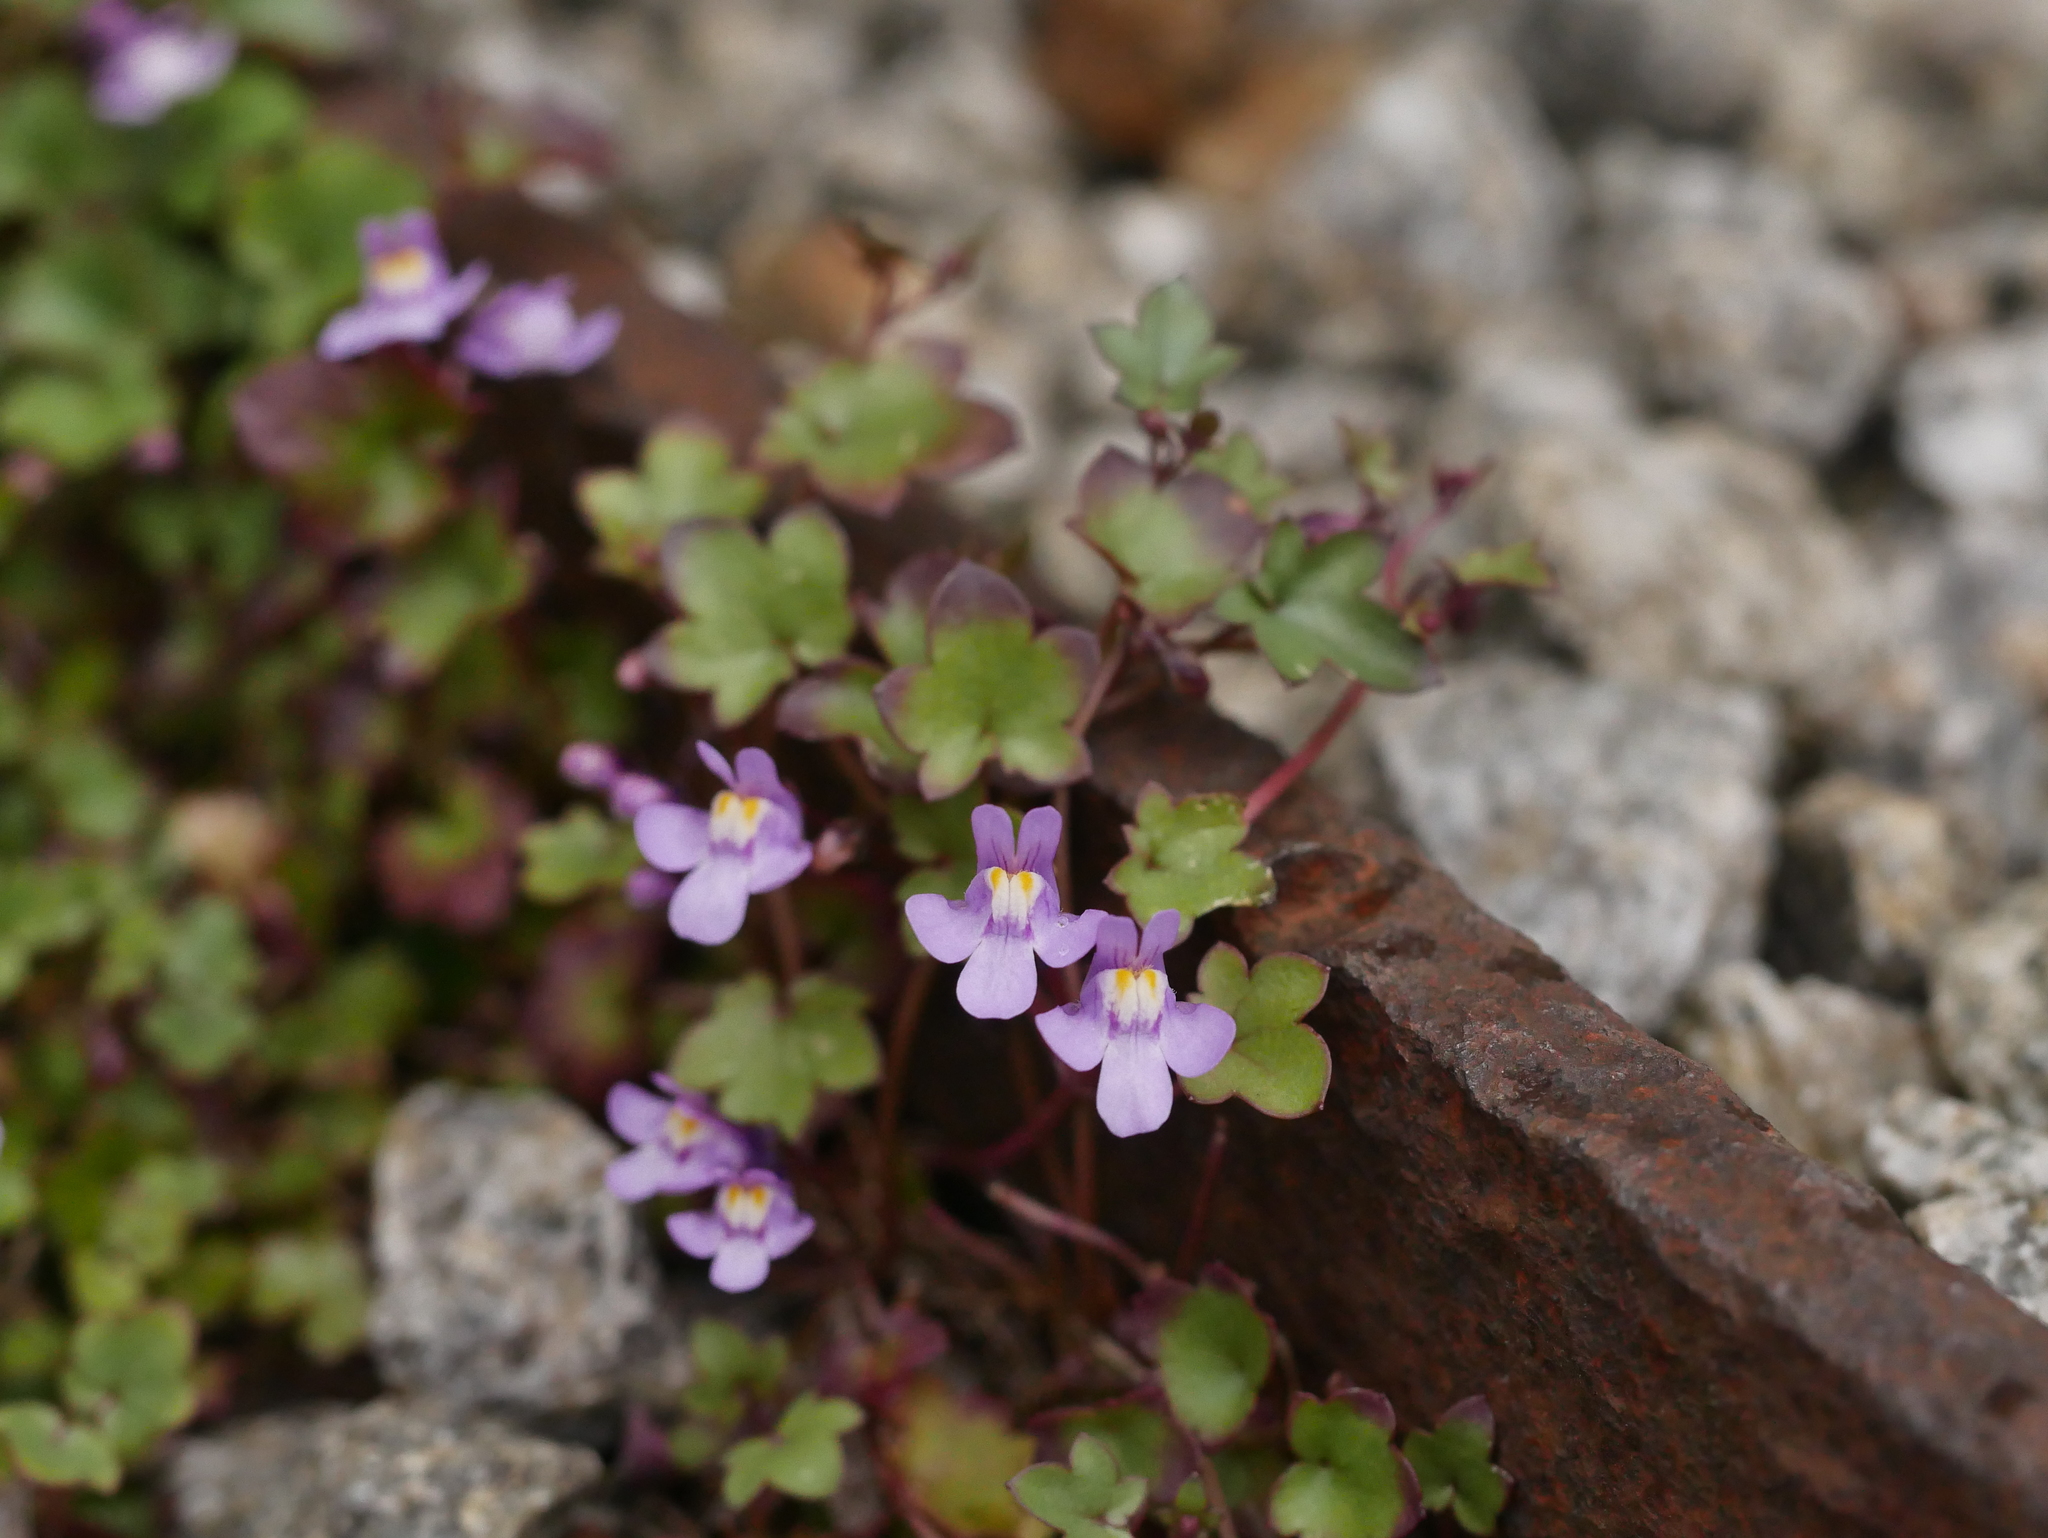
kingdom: Plantae
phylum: Tracheophyta
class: Magnoliopsida
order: Lamiales
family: Plantaginaceae
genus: Cymbalaria
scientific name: Cymbalaria muralis
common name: Ivy-leaved toadflax
